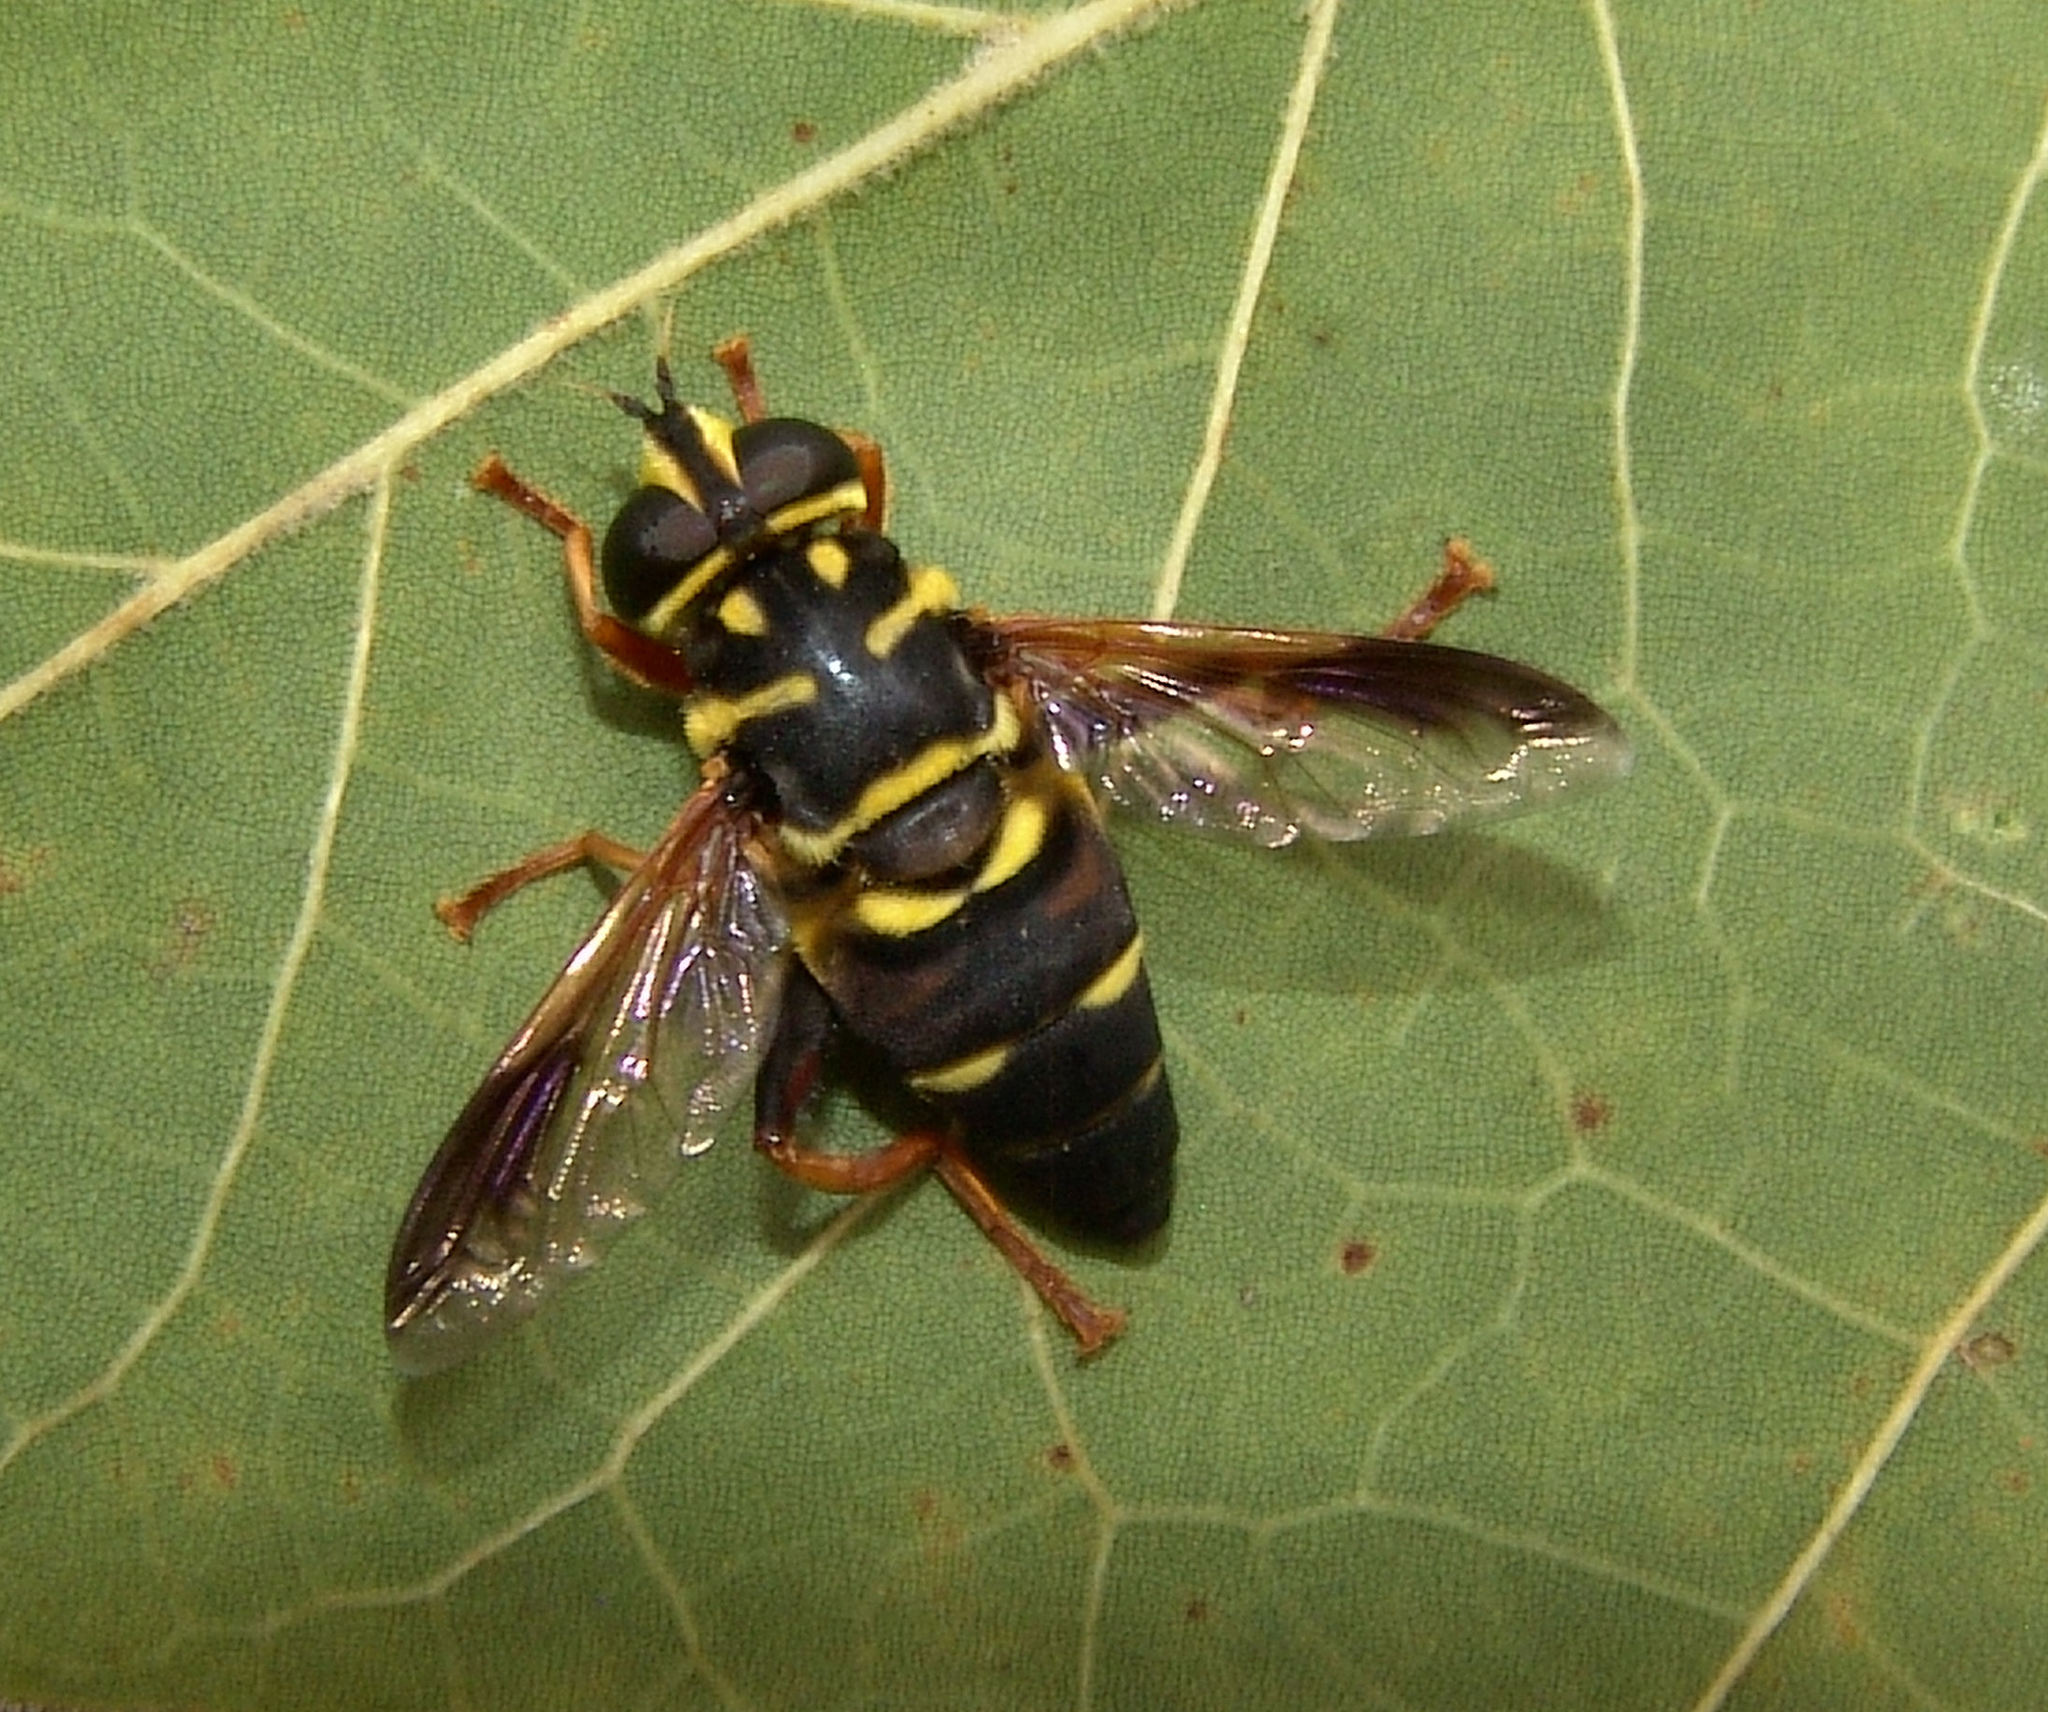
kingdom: Animalia
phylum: Arthropoda
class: Insecta
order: Diptera
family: Syrphidae
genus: Meromacrus
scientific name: Meromacrus acutus
